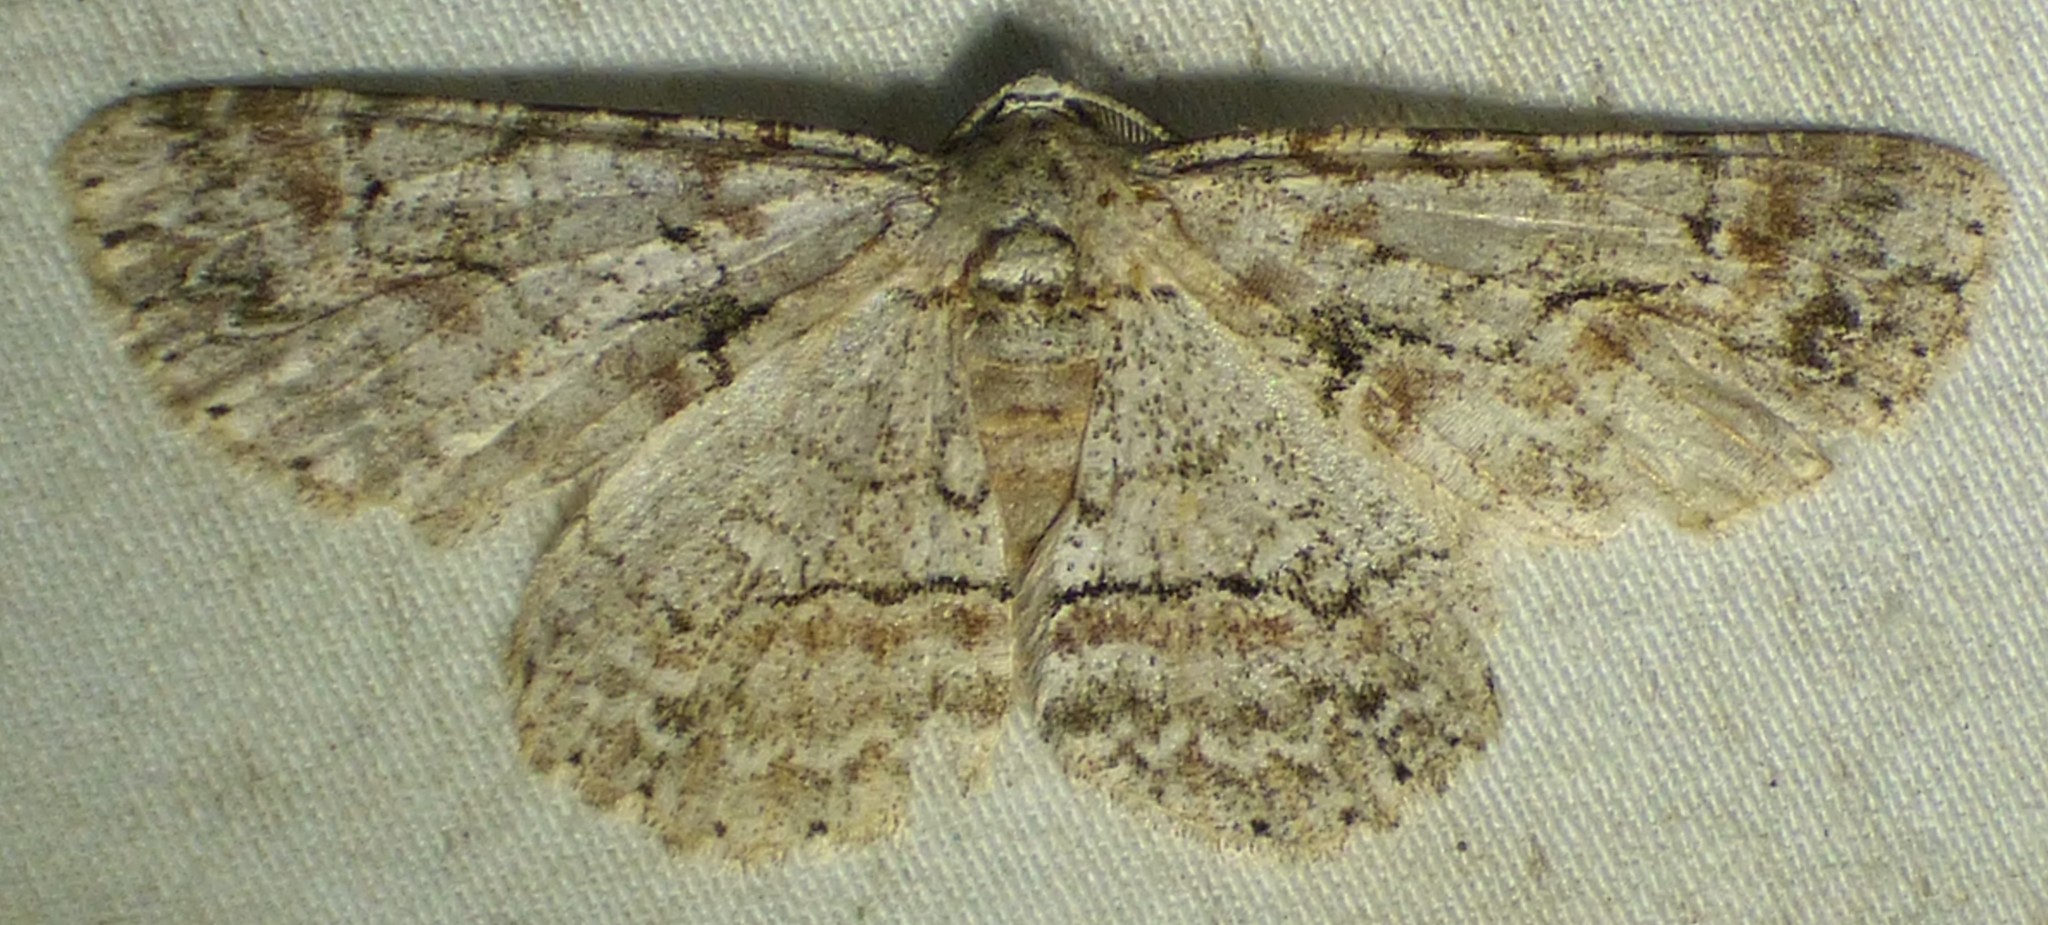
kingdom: Animalia
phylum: Arthropoda
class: Insecta
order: Lepidoptera
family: Geometridae
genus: Iridopsis
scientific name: Iridopsis defectaria
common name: Brown-shaded gray
